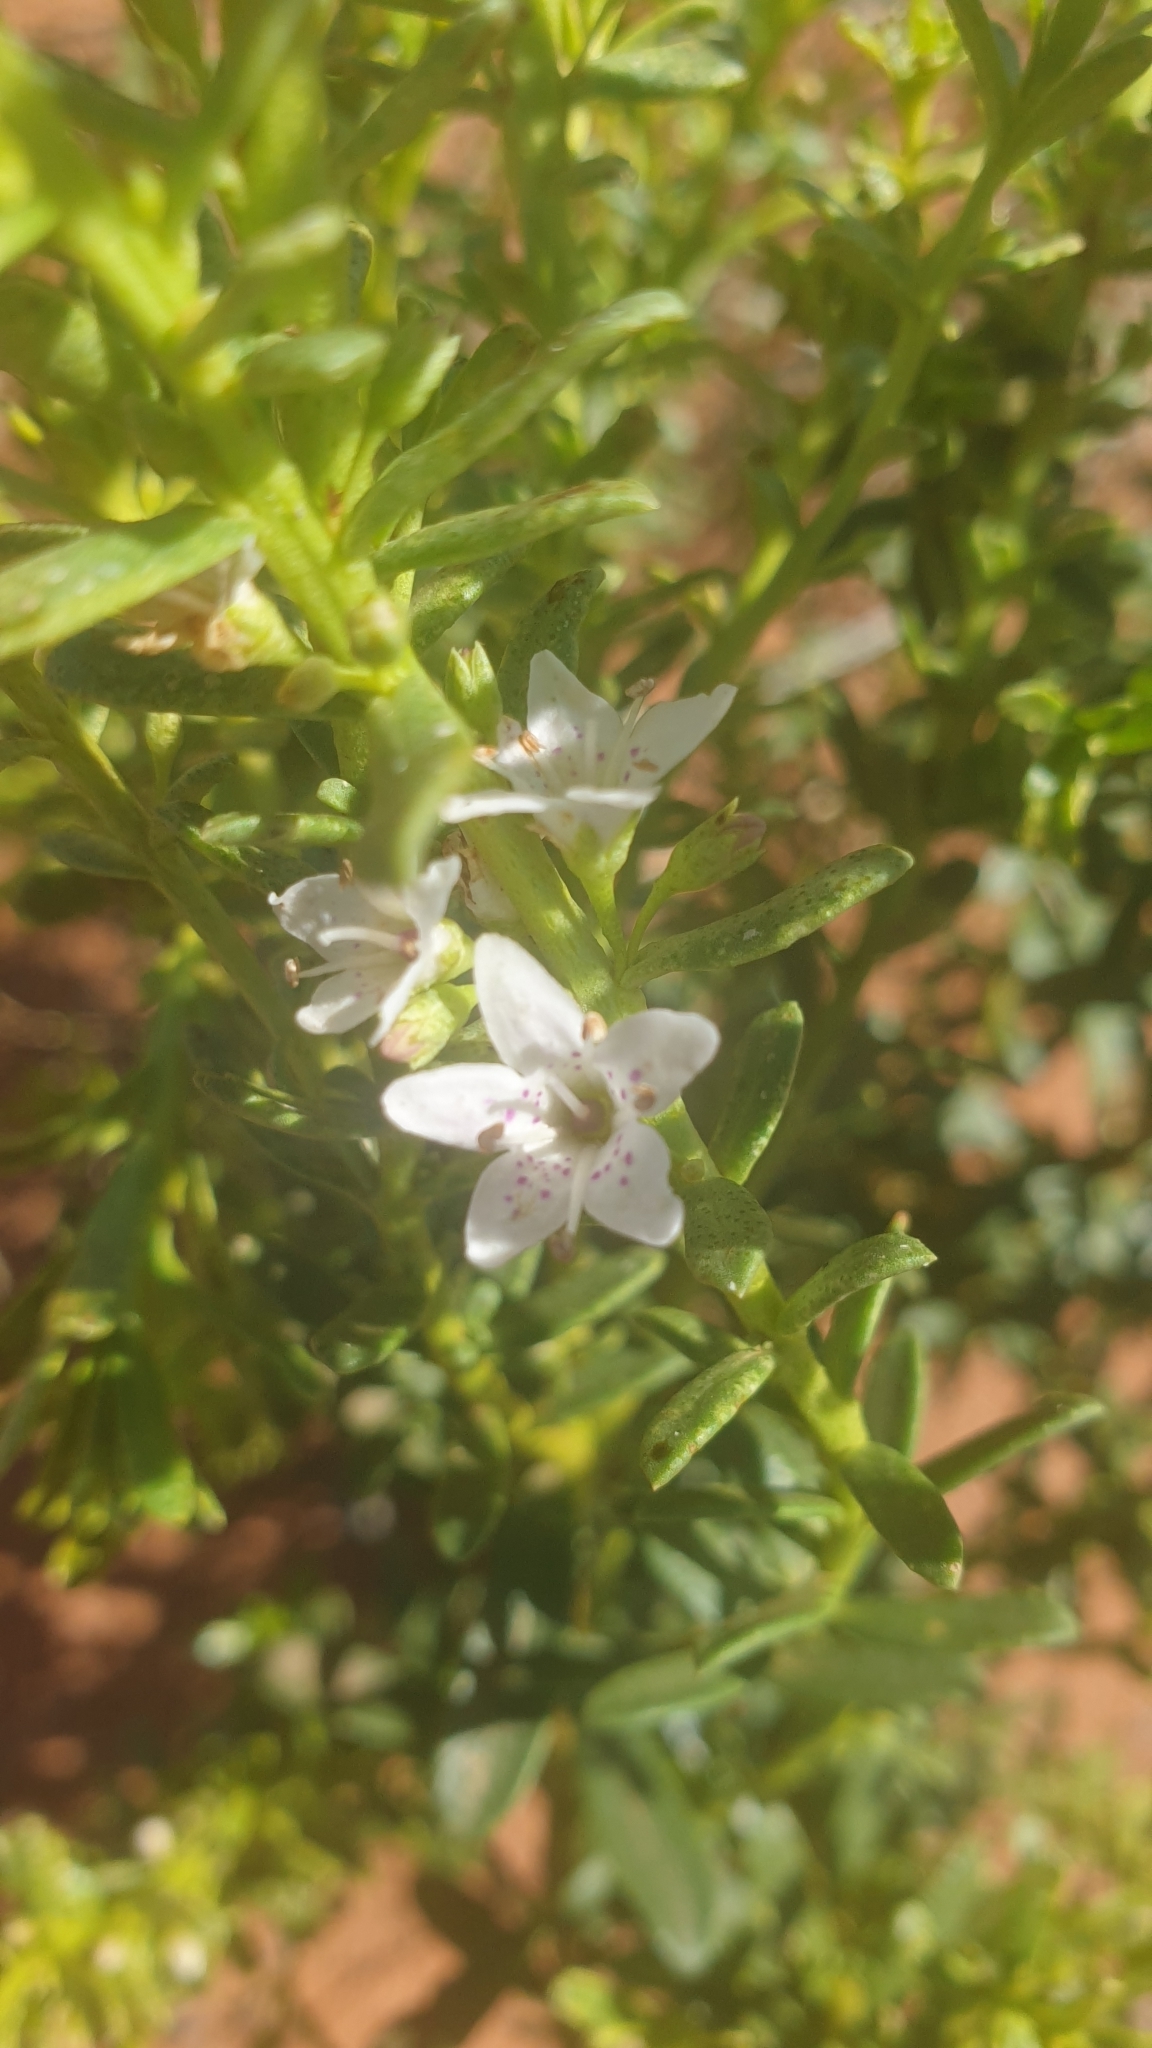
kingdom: Plantae
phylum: Tracheophyta
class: Magnoliopsida
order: Lamiales
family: Scrophulariaceae
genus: Myoporum
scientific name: Myoporum brevipes
